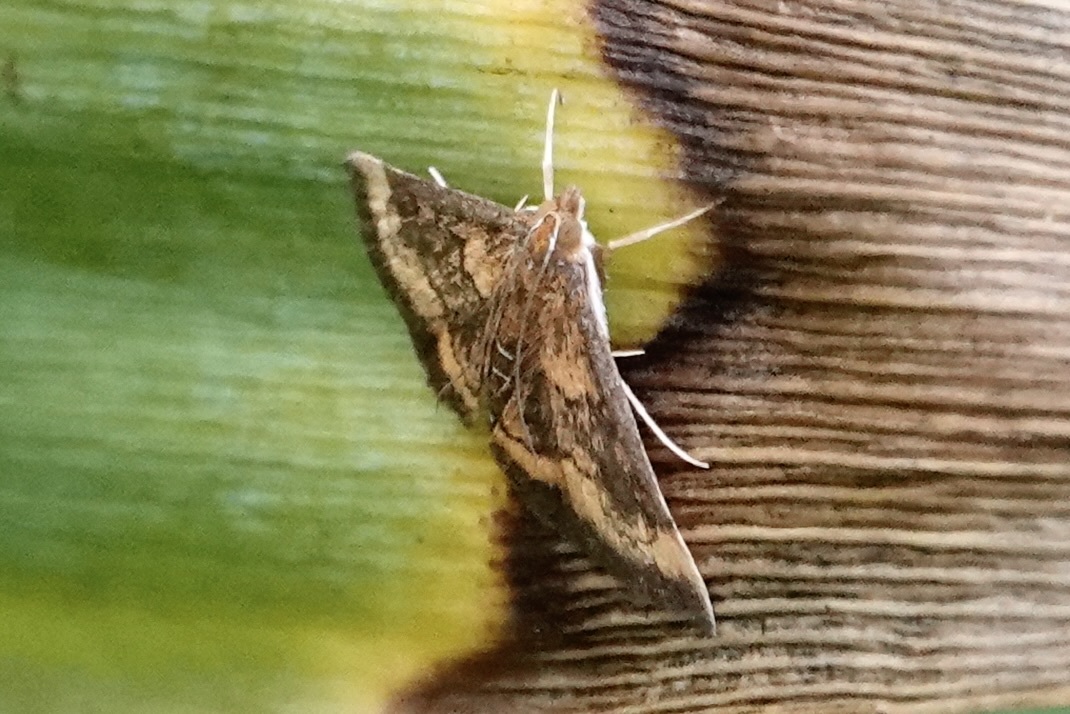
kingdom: Animalia
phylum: Arthropoda
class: Insecta
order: Lepidoptera
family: Crambidae
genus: Pyrausta
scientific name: Pyrausta rubricalis
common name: Variable reddish pyrausta
